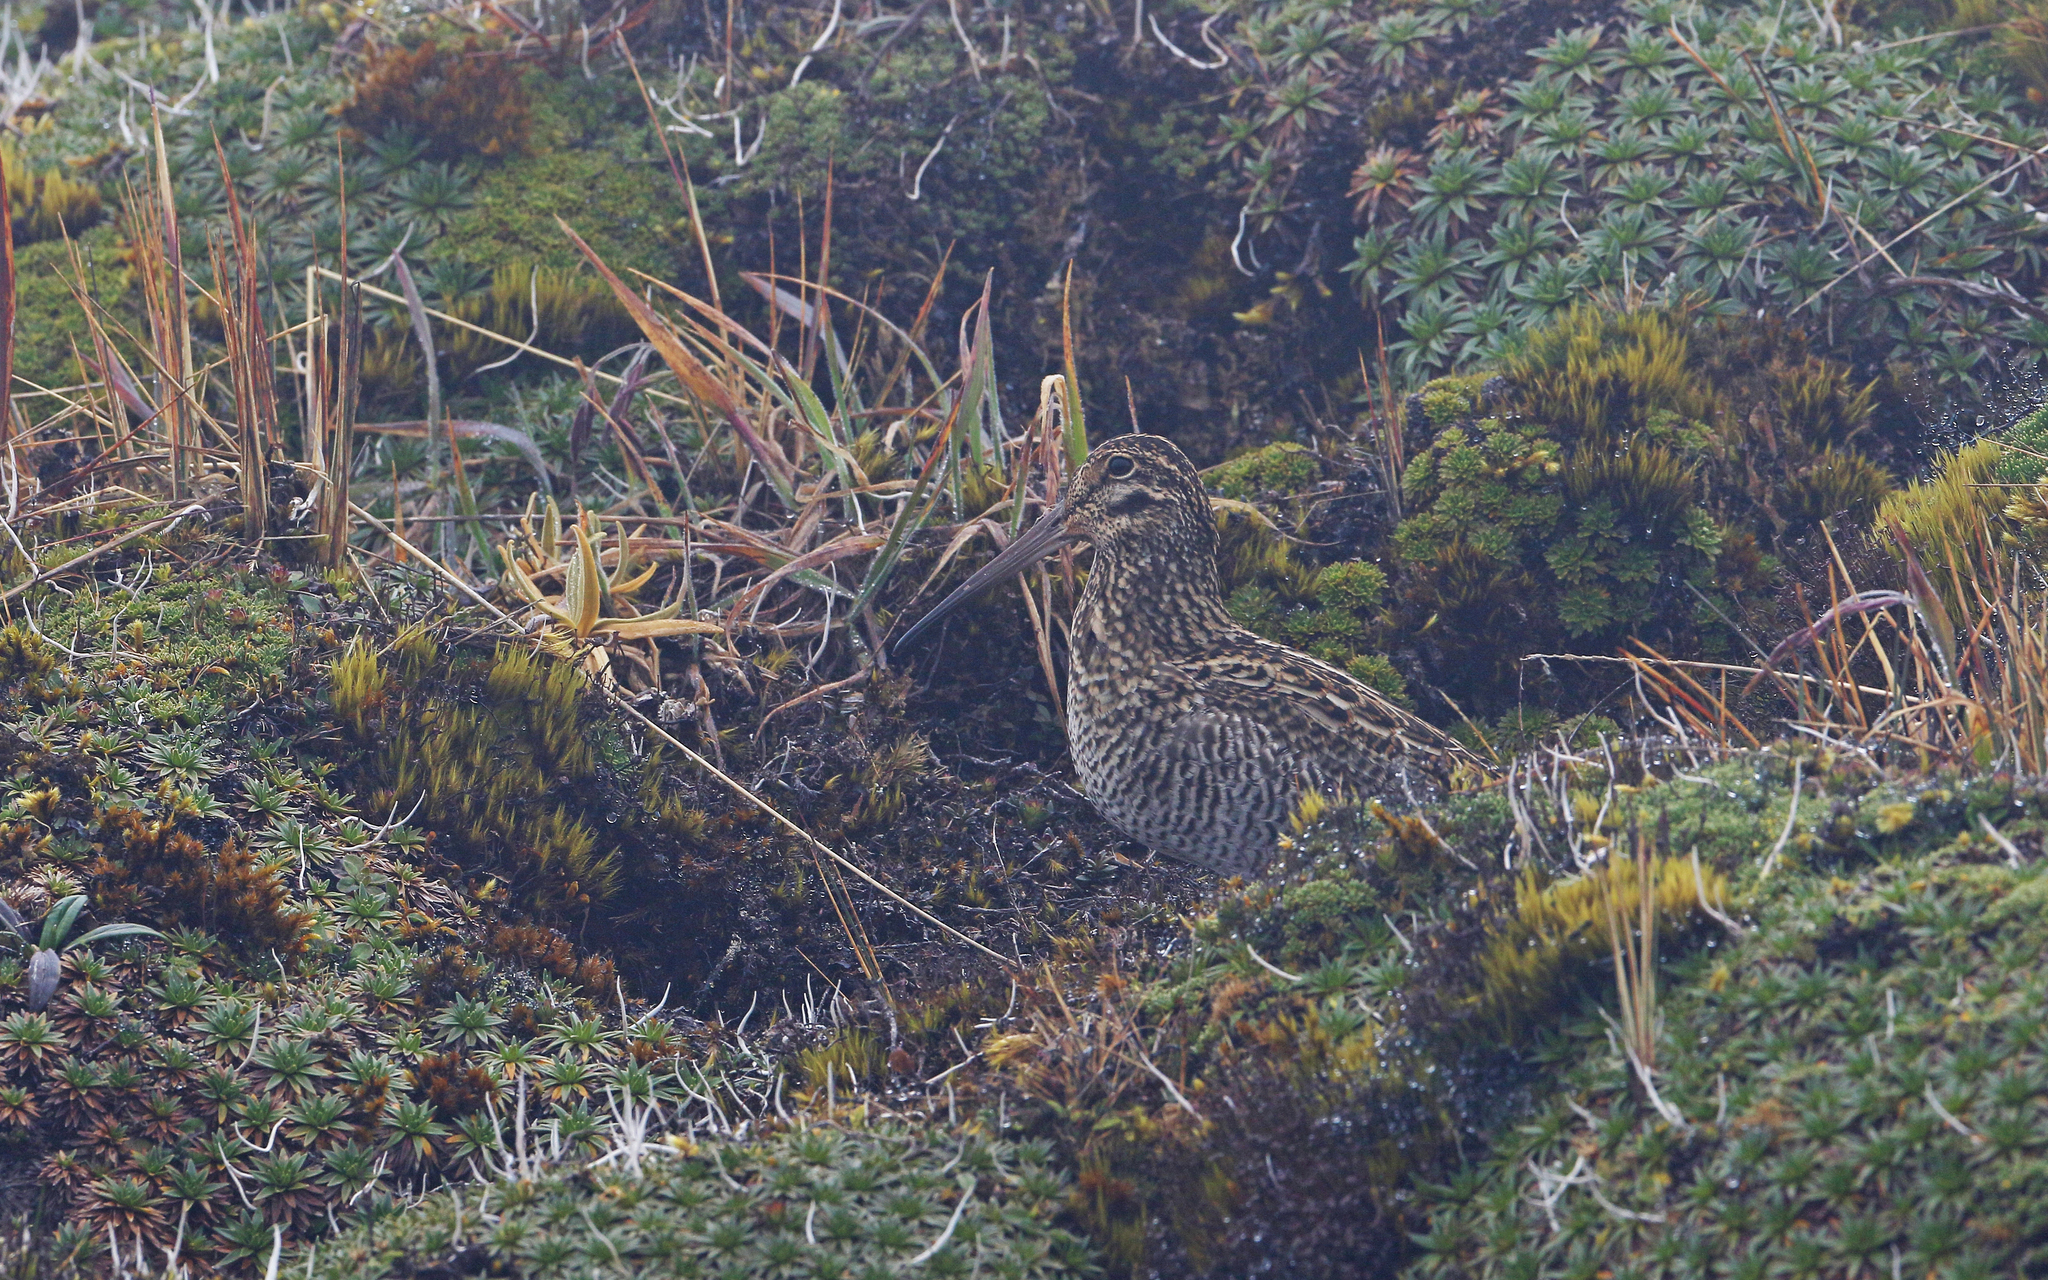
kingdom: Animalia
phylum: Chordata
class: Aves
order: Charadriiformes
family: Scolopacidae
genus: Gallinago
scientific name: Gallinago jamesoni
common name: Andean snipe
